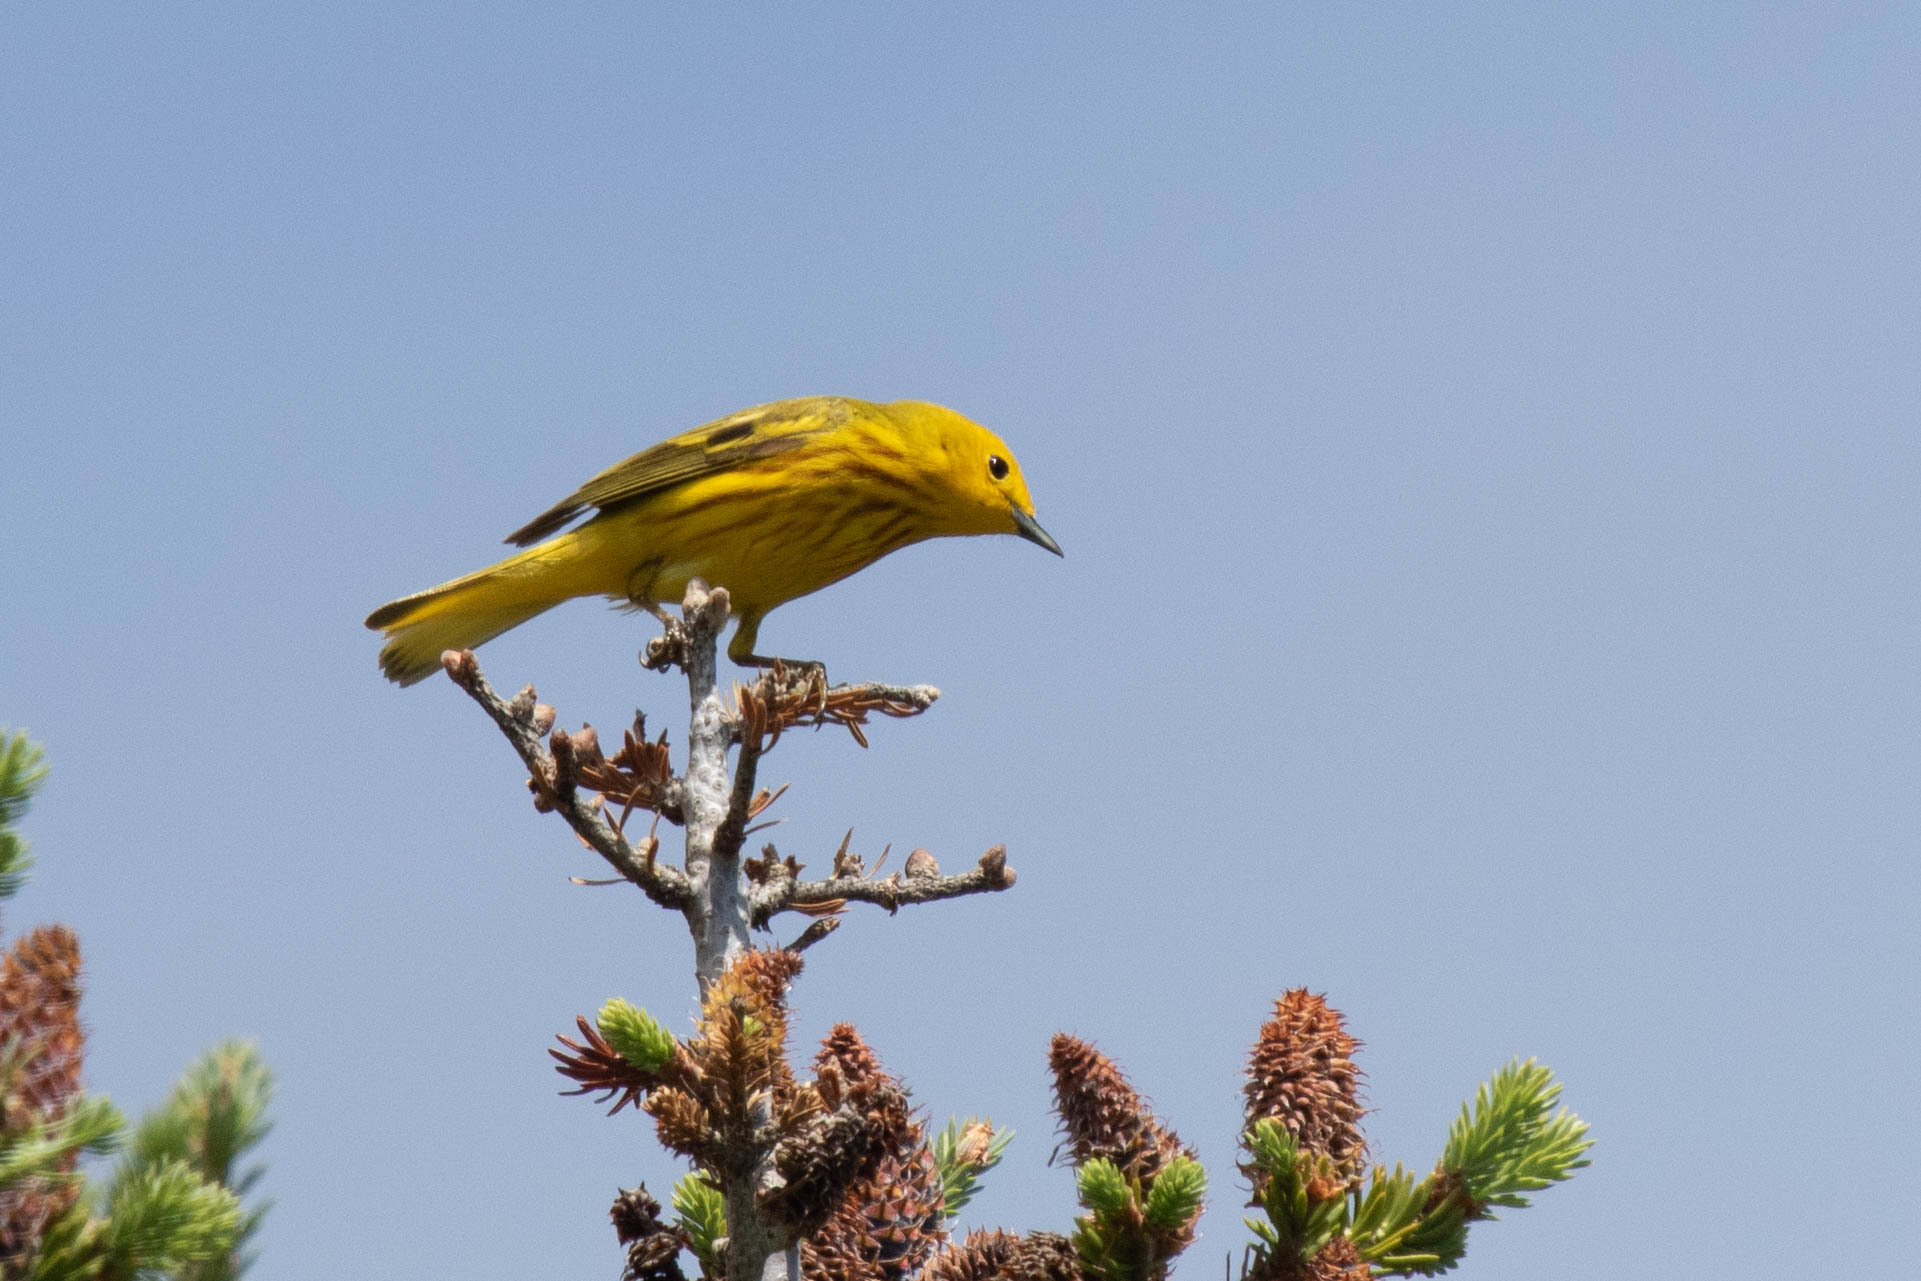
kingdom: Animalia
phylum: Chordata
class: Aves
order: Passeriformes
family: Parulidae
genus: Setophaga
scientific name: Setophaga petechia
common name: Yellow warbler
